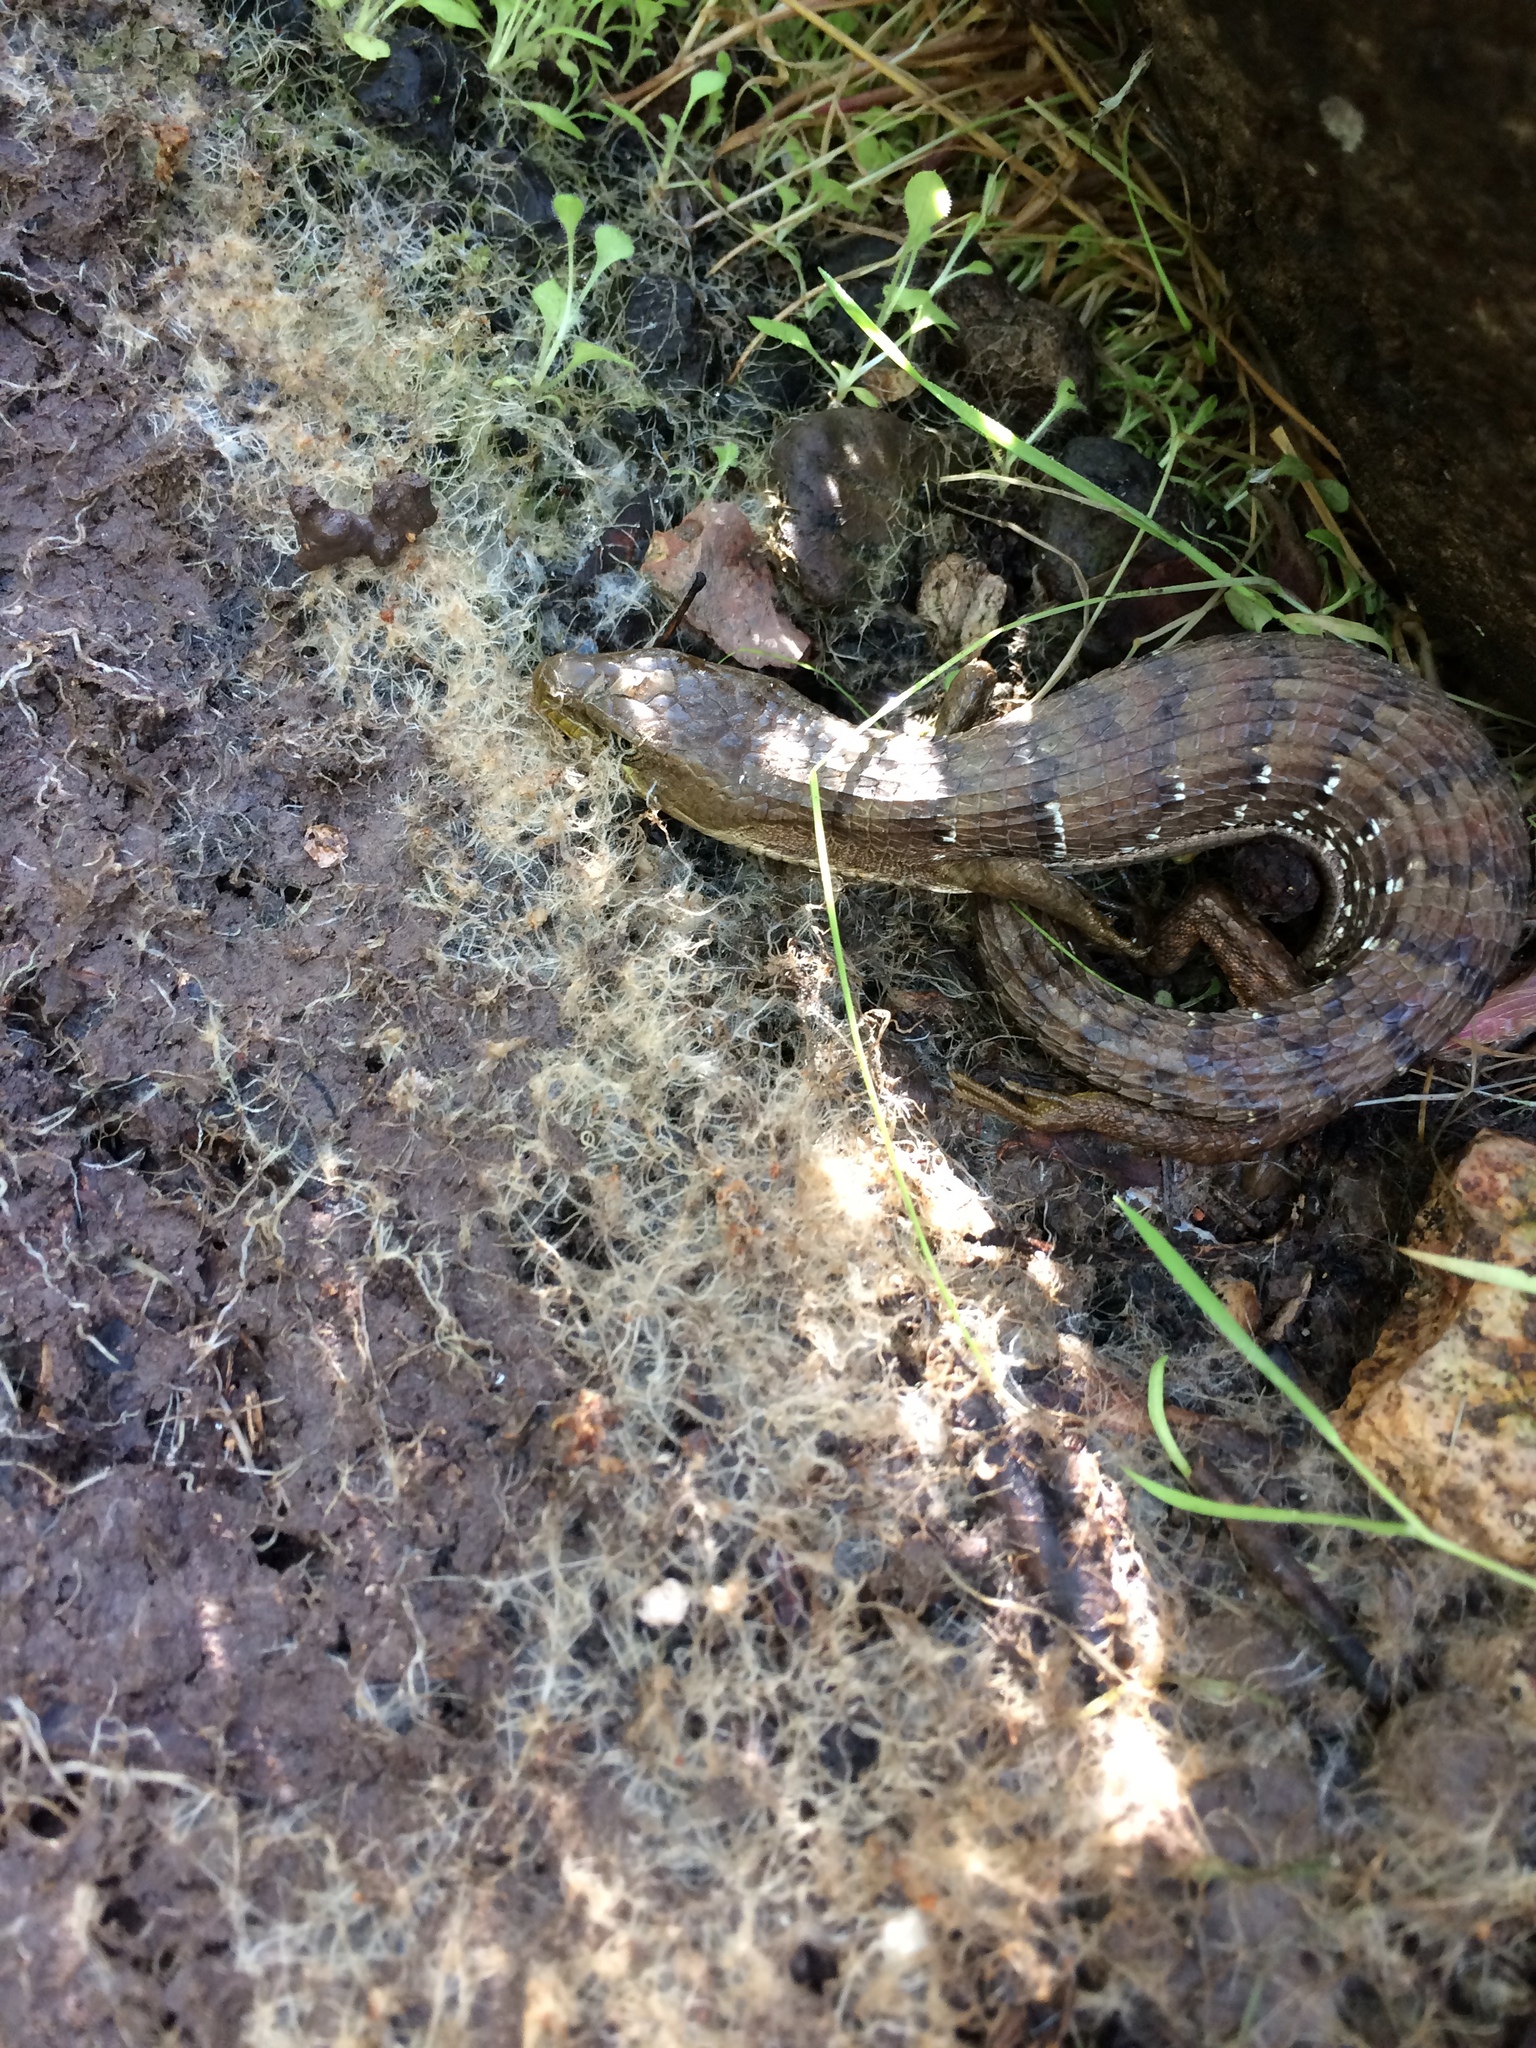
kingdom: Animalia
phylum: Chordata
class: Squamata
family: Anguidae
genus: Elgaria
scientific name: Elgaria multicarinata
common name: Southern alligator lizard
